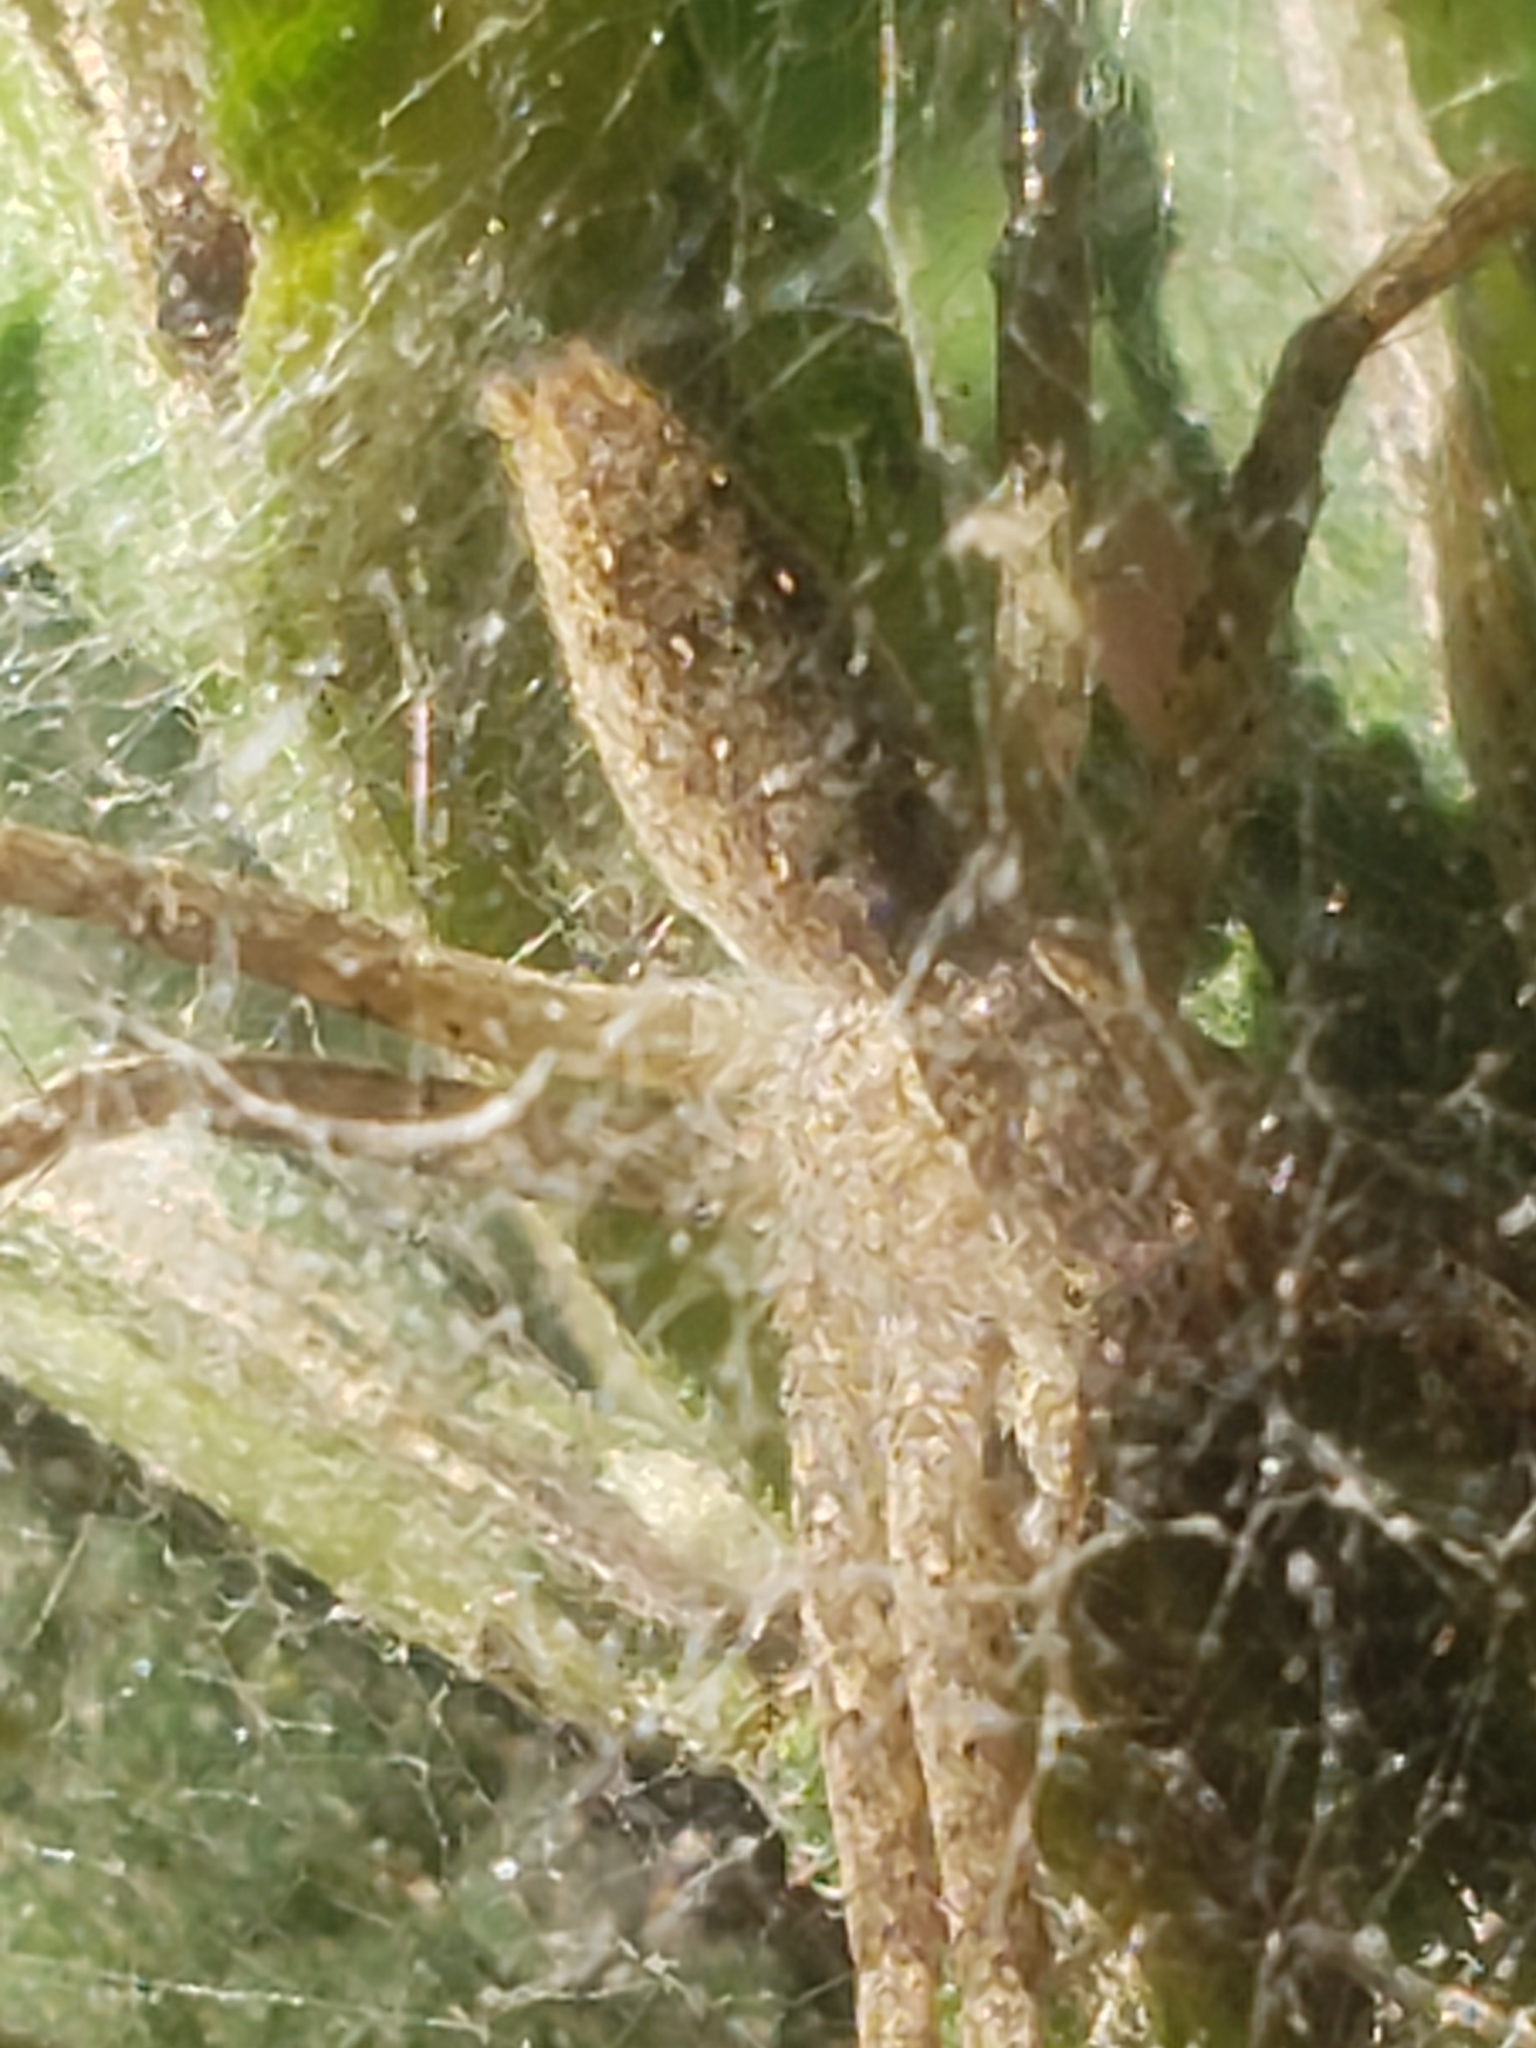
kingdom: Animalia
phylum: Arthropoda
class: Arachnida
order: Araneae
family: Pisauridae
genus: Pisaurina
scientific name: Pisaurina mira
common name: American nursery web spider
